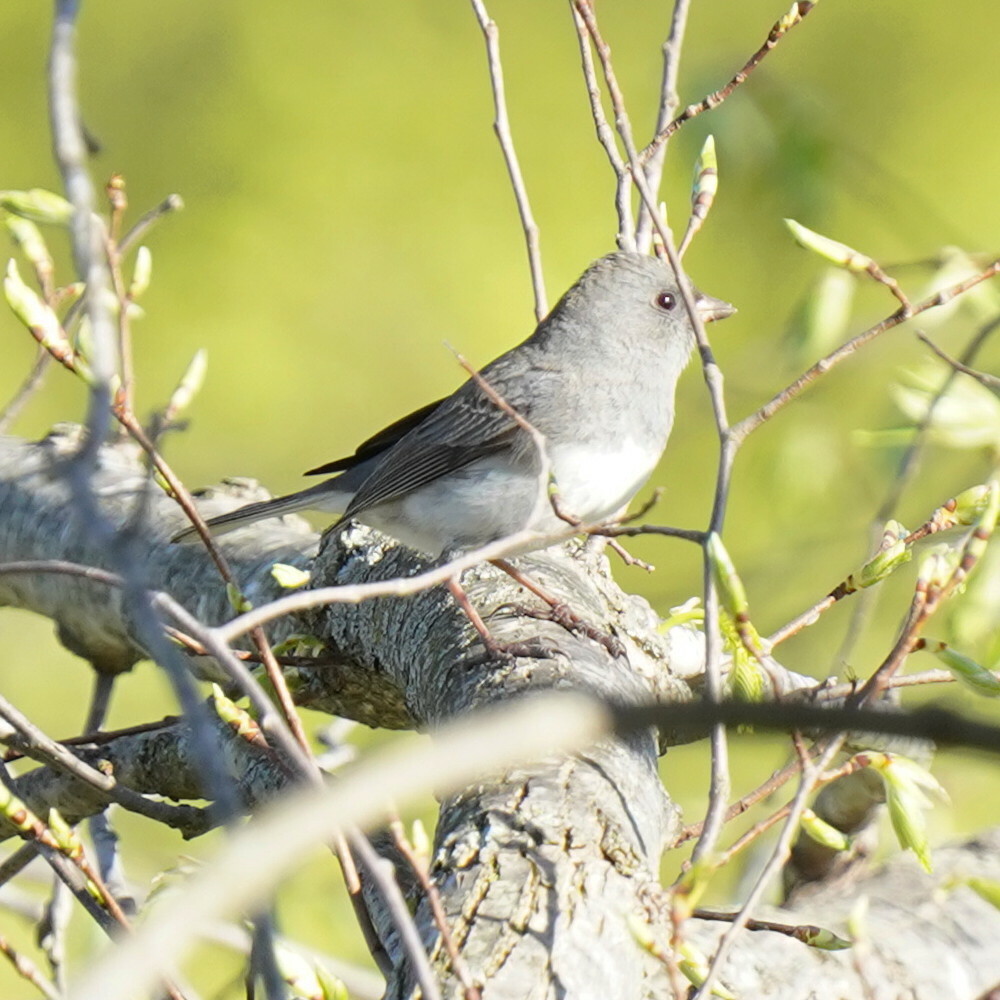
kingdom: Animalia
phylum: Chordata
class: Aves
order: Passeriformes
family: Passerellidae
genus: Junco
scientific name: Junco hyemalis
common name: Dark-eyed junco
